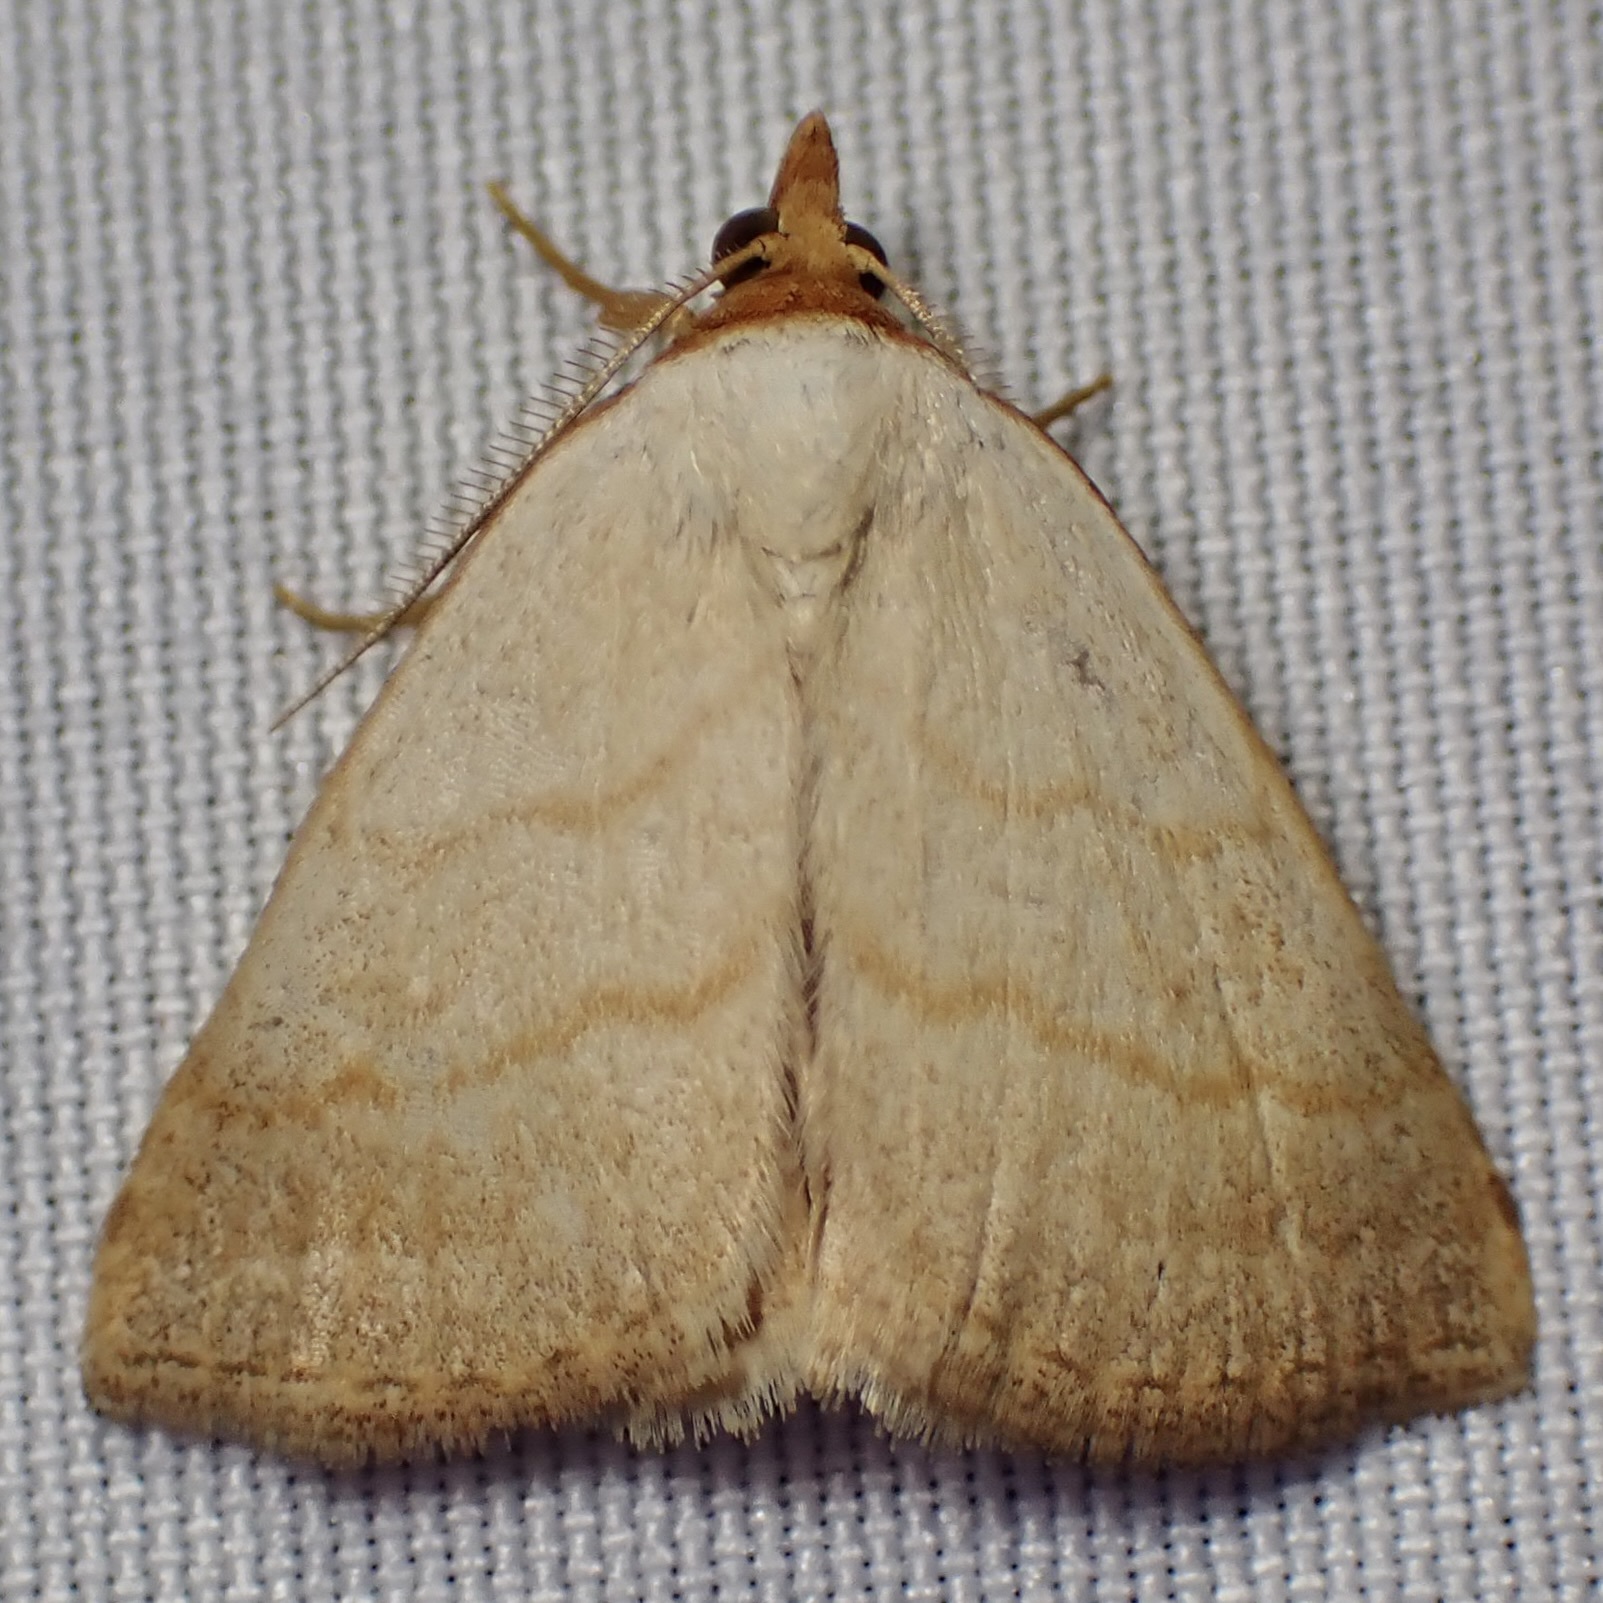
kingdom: Animalia
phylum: Arthropoda
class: Insecta
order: Lepidoptera
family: Erebidae
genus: Oxycilla
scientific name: Oxycilla tripla
